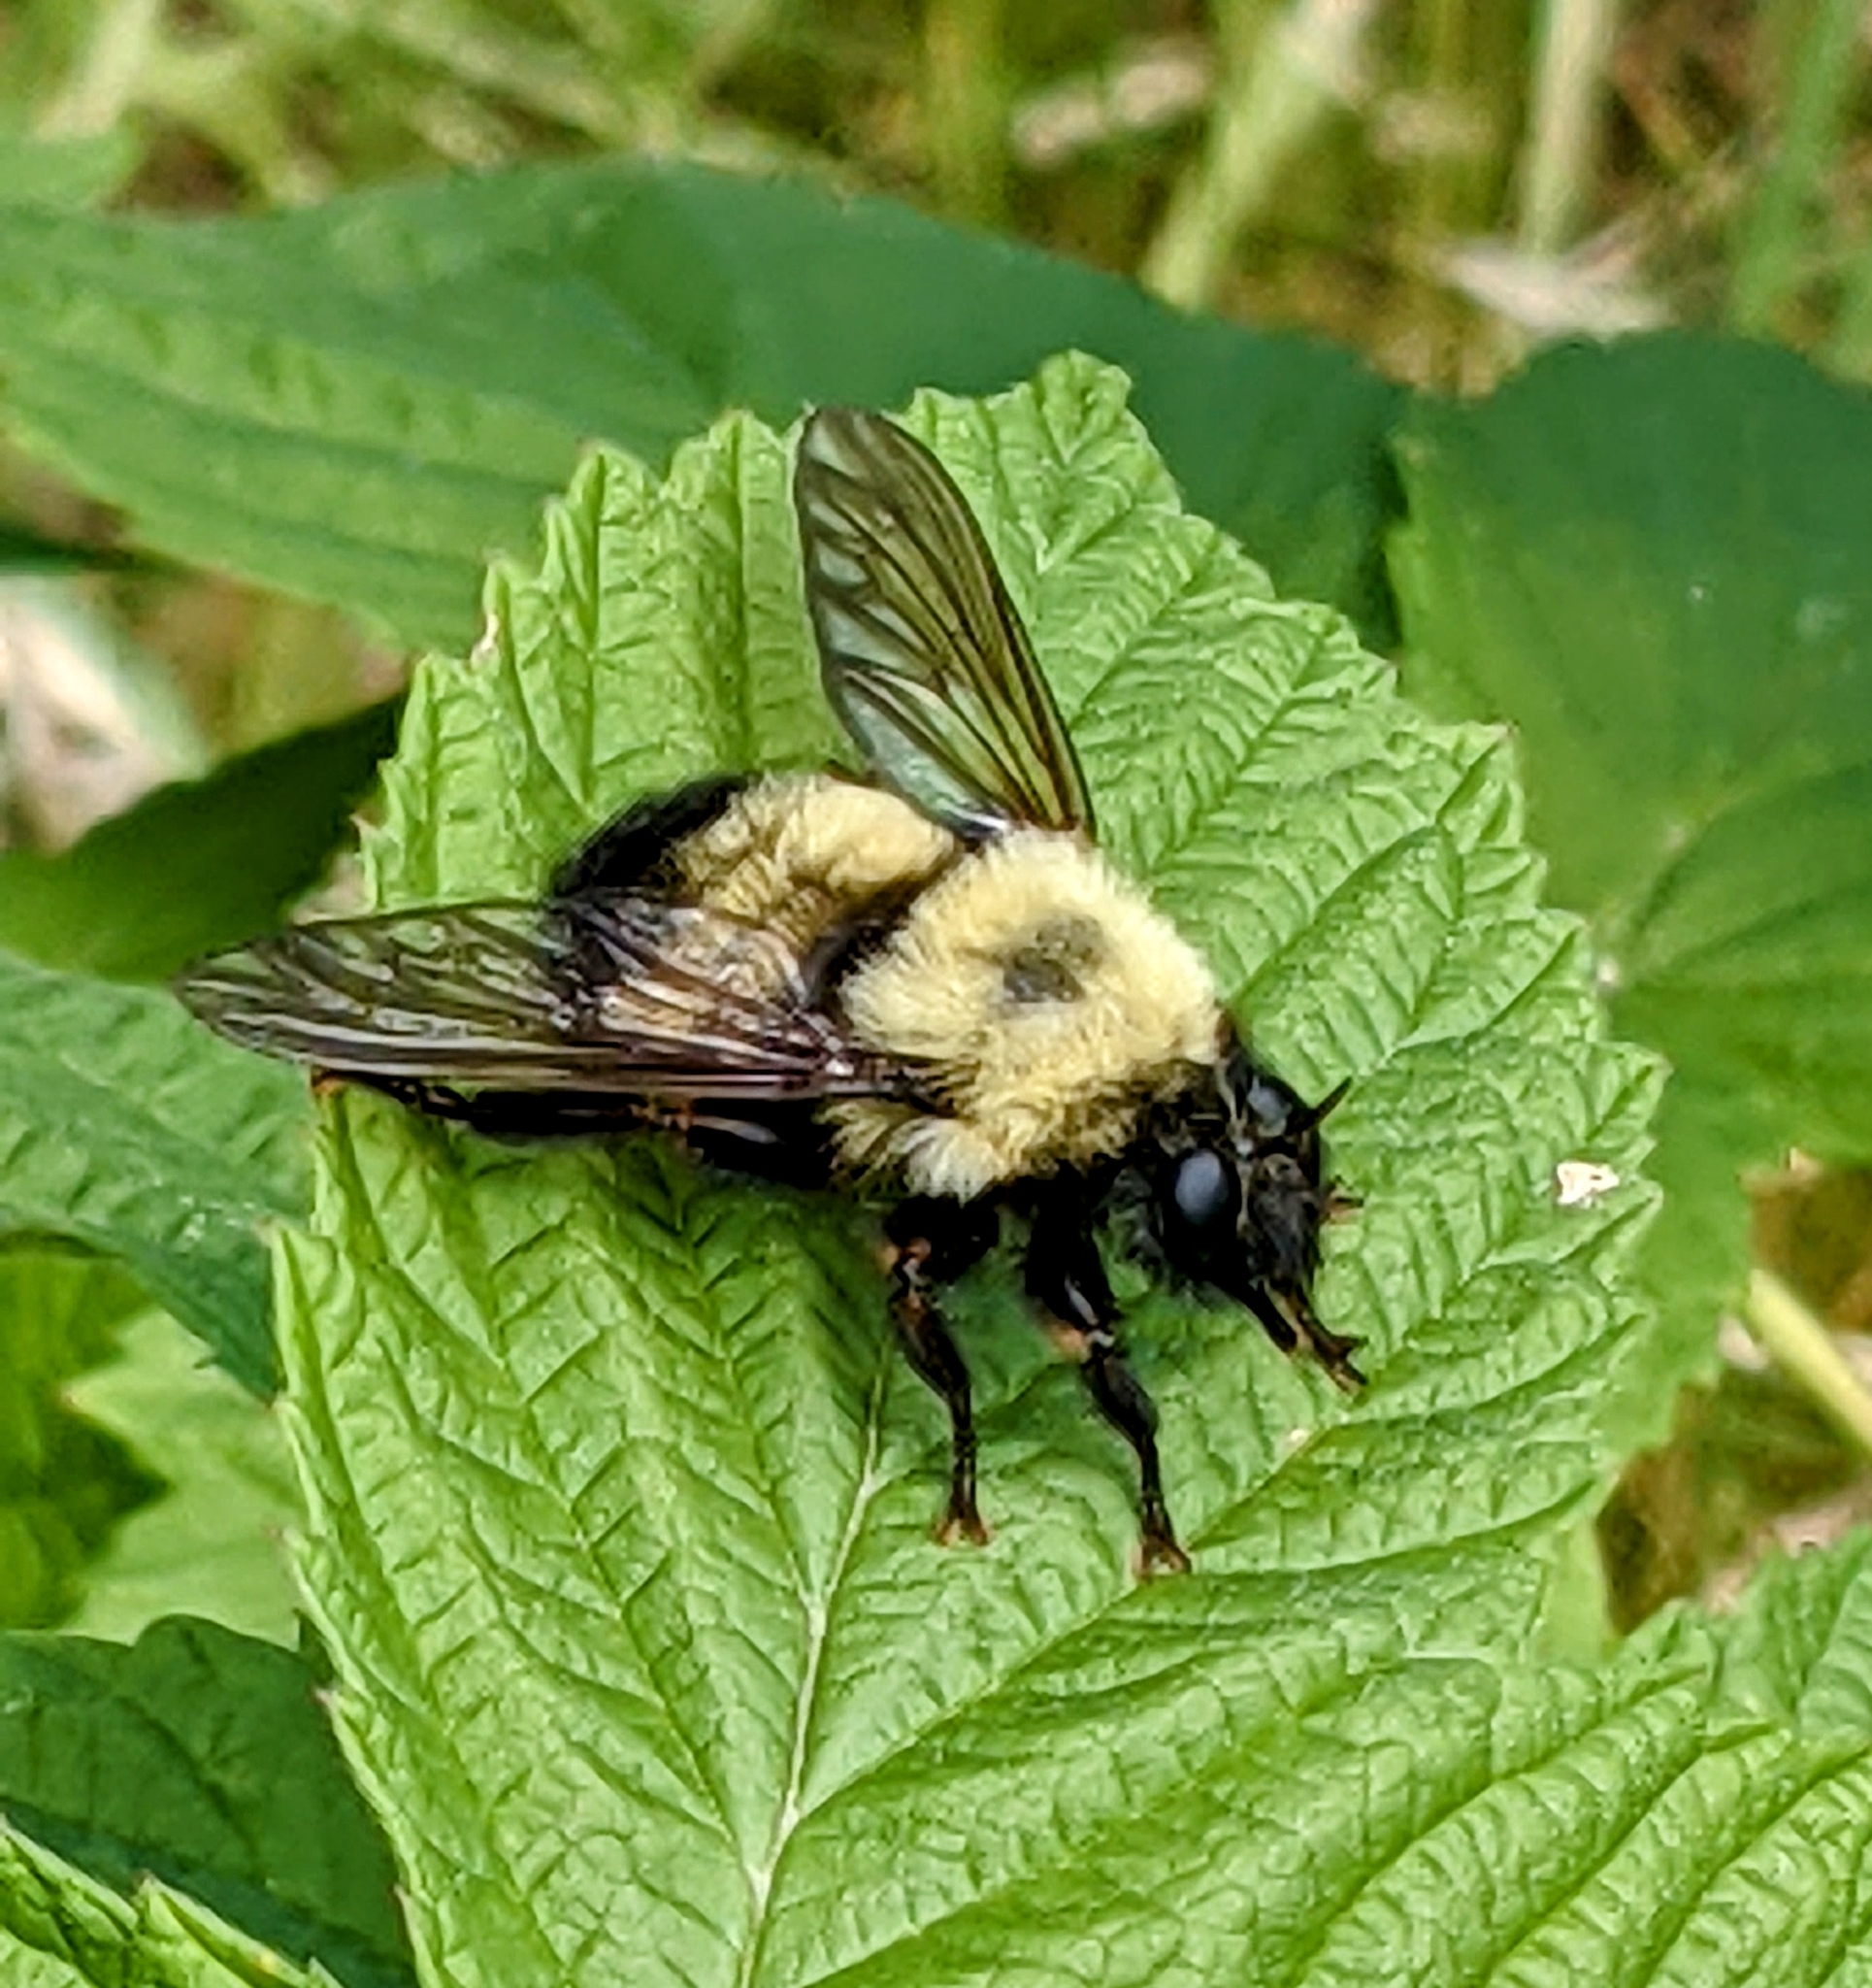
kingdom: Animalia
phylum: Arthropoda
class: Insecta
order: Diptera
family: Asilidae
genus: Laphria
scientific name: Laphria thoracica
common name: Bumble bee mimic robber fly
